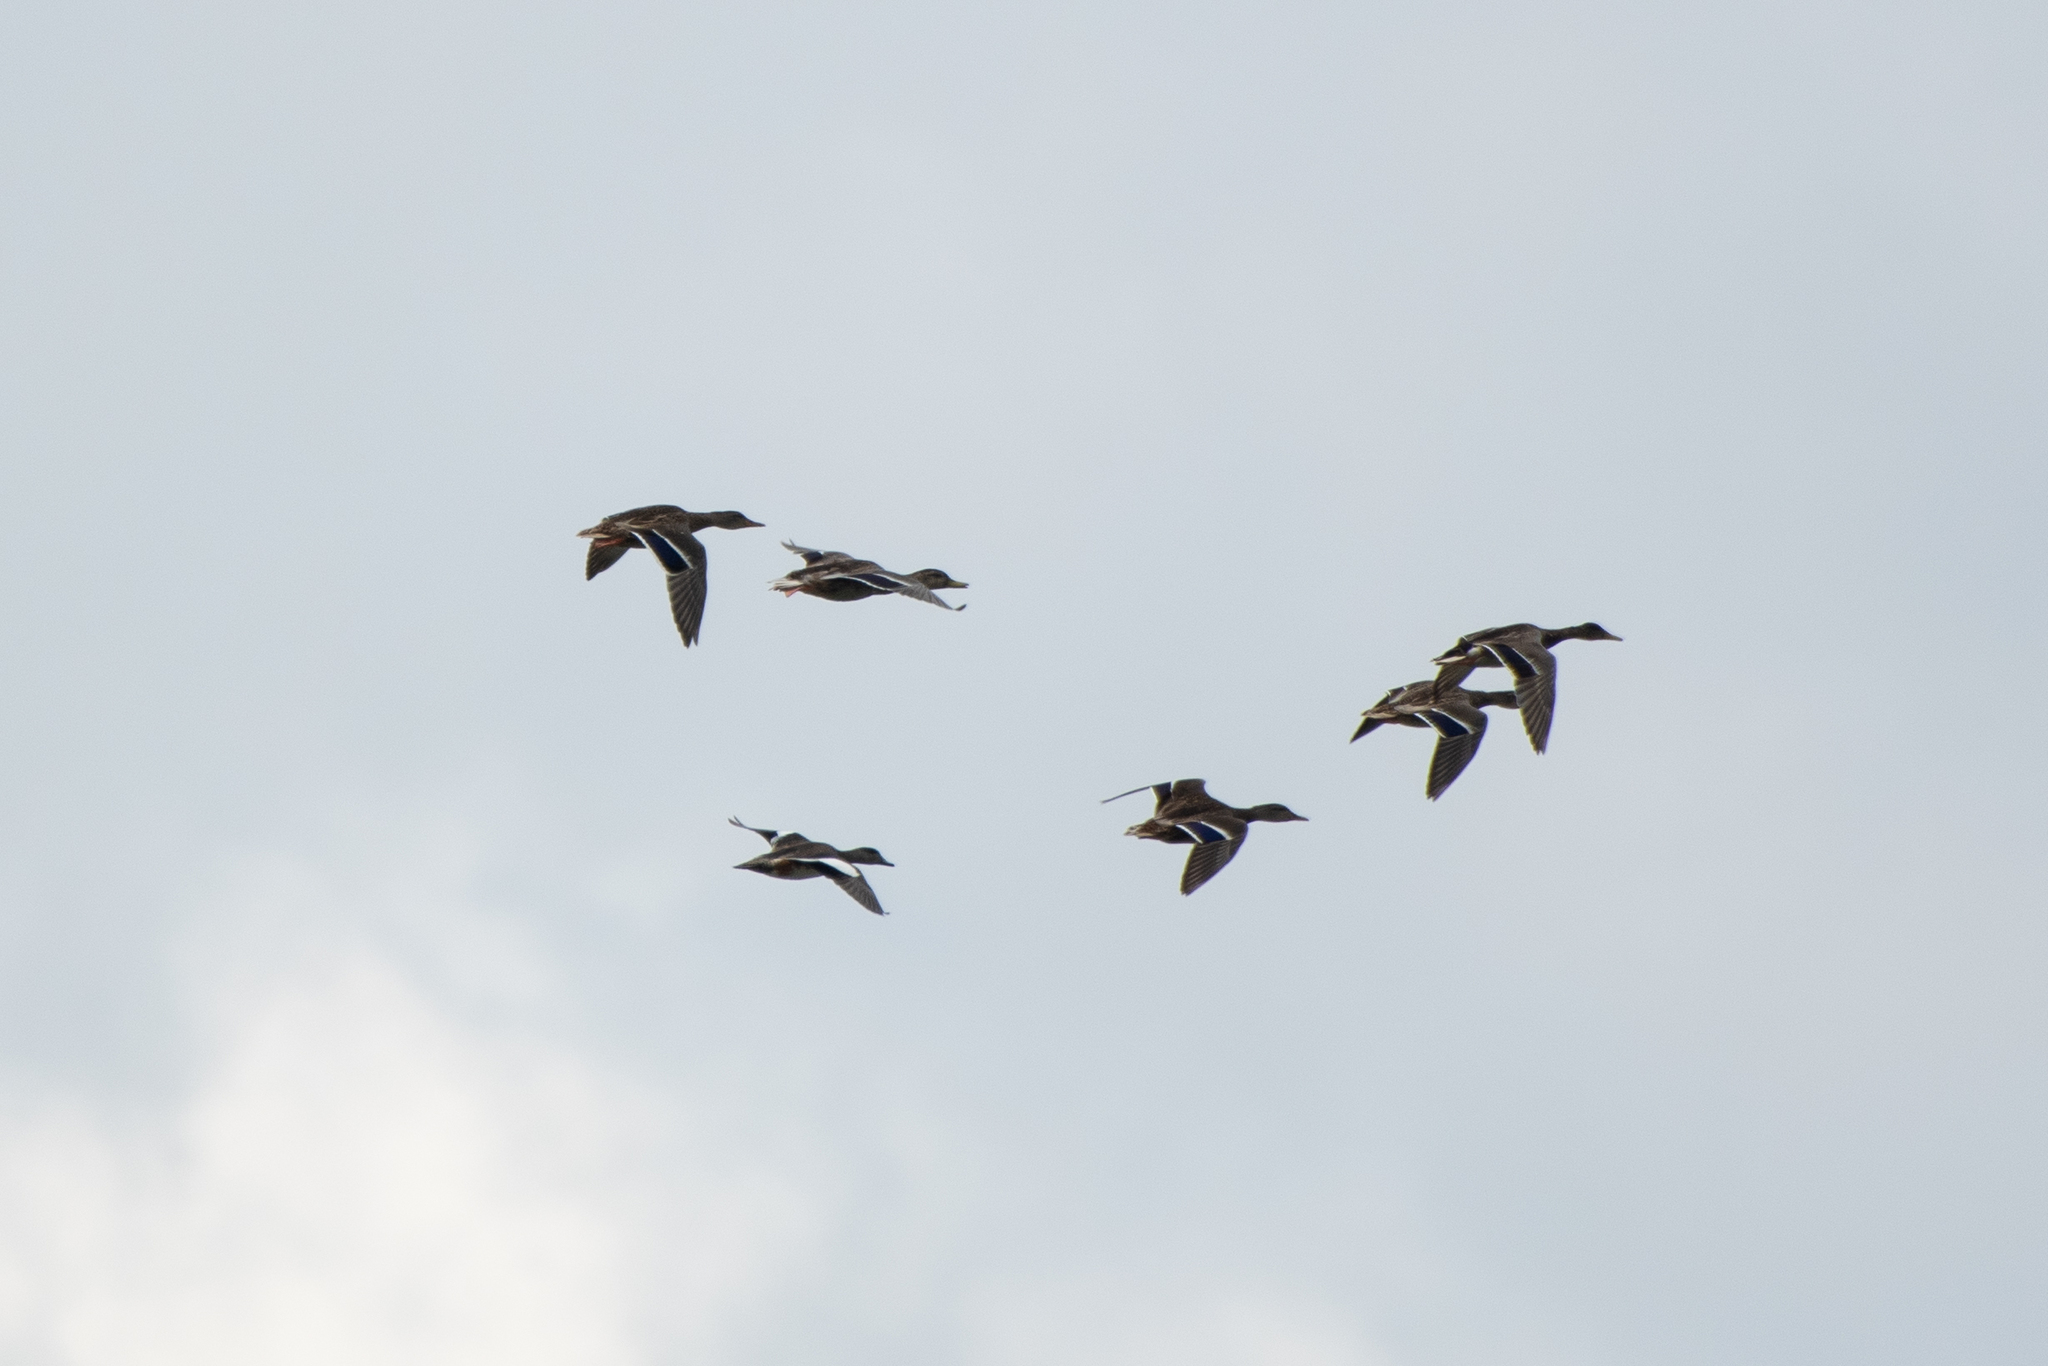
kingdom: Animalia
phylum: Chordata
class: Aves
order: Anseriformes
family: Anatidae
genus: Anas
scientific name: Anas platyrhynchos
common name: Mallard
